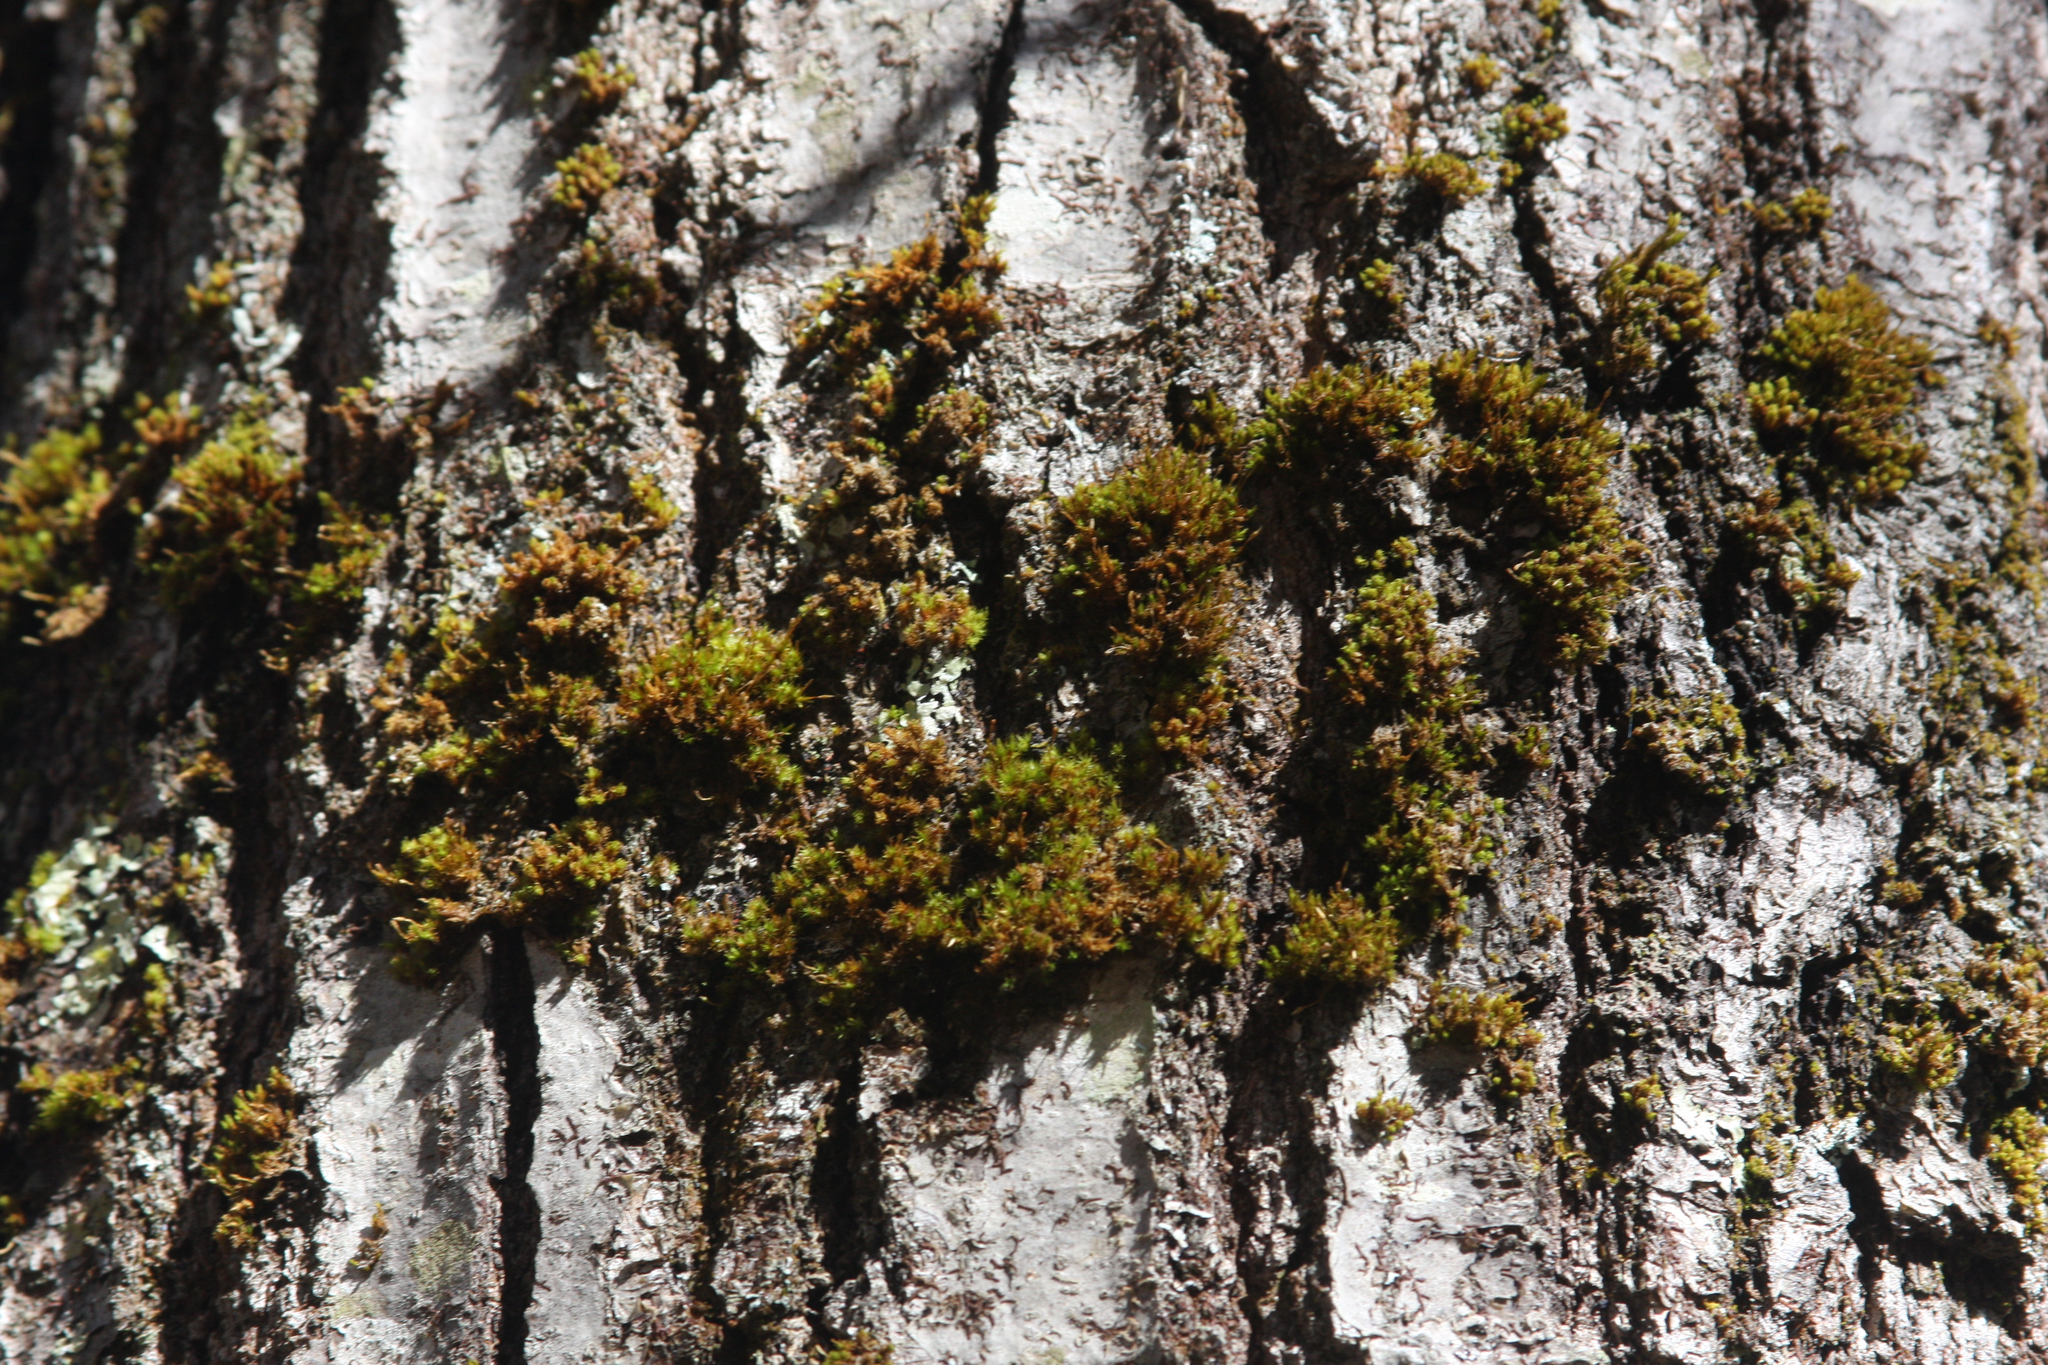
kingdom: Plantae
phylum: Bryophyta
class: Bryopsida
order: Orthotrichales
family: Orthotrichaceae
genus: Ulota
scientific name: Ulota crispa
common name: Crisped pincushion moss
